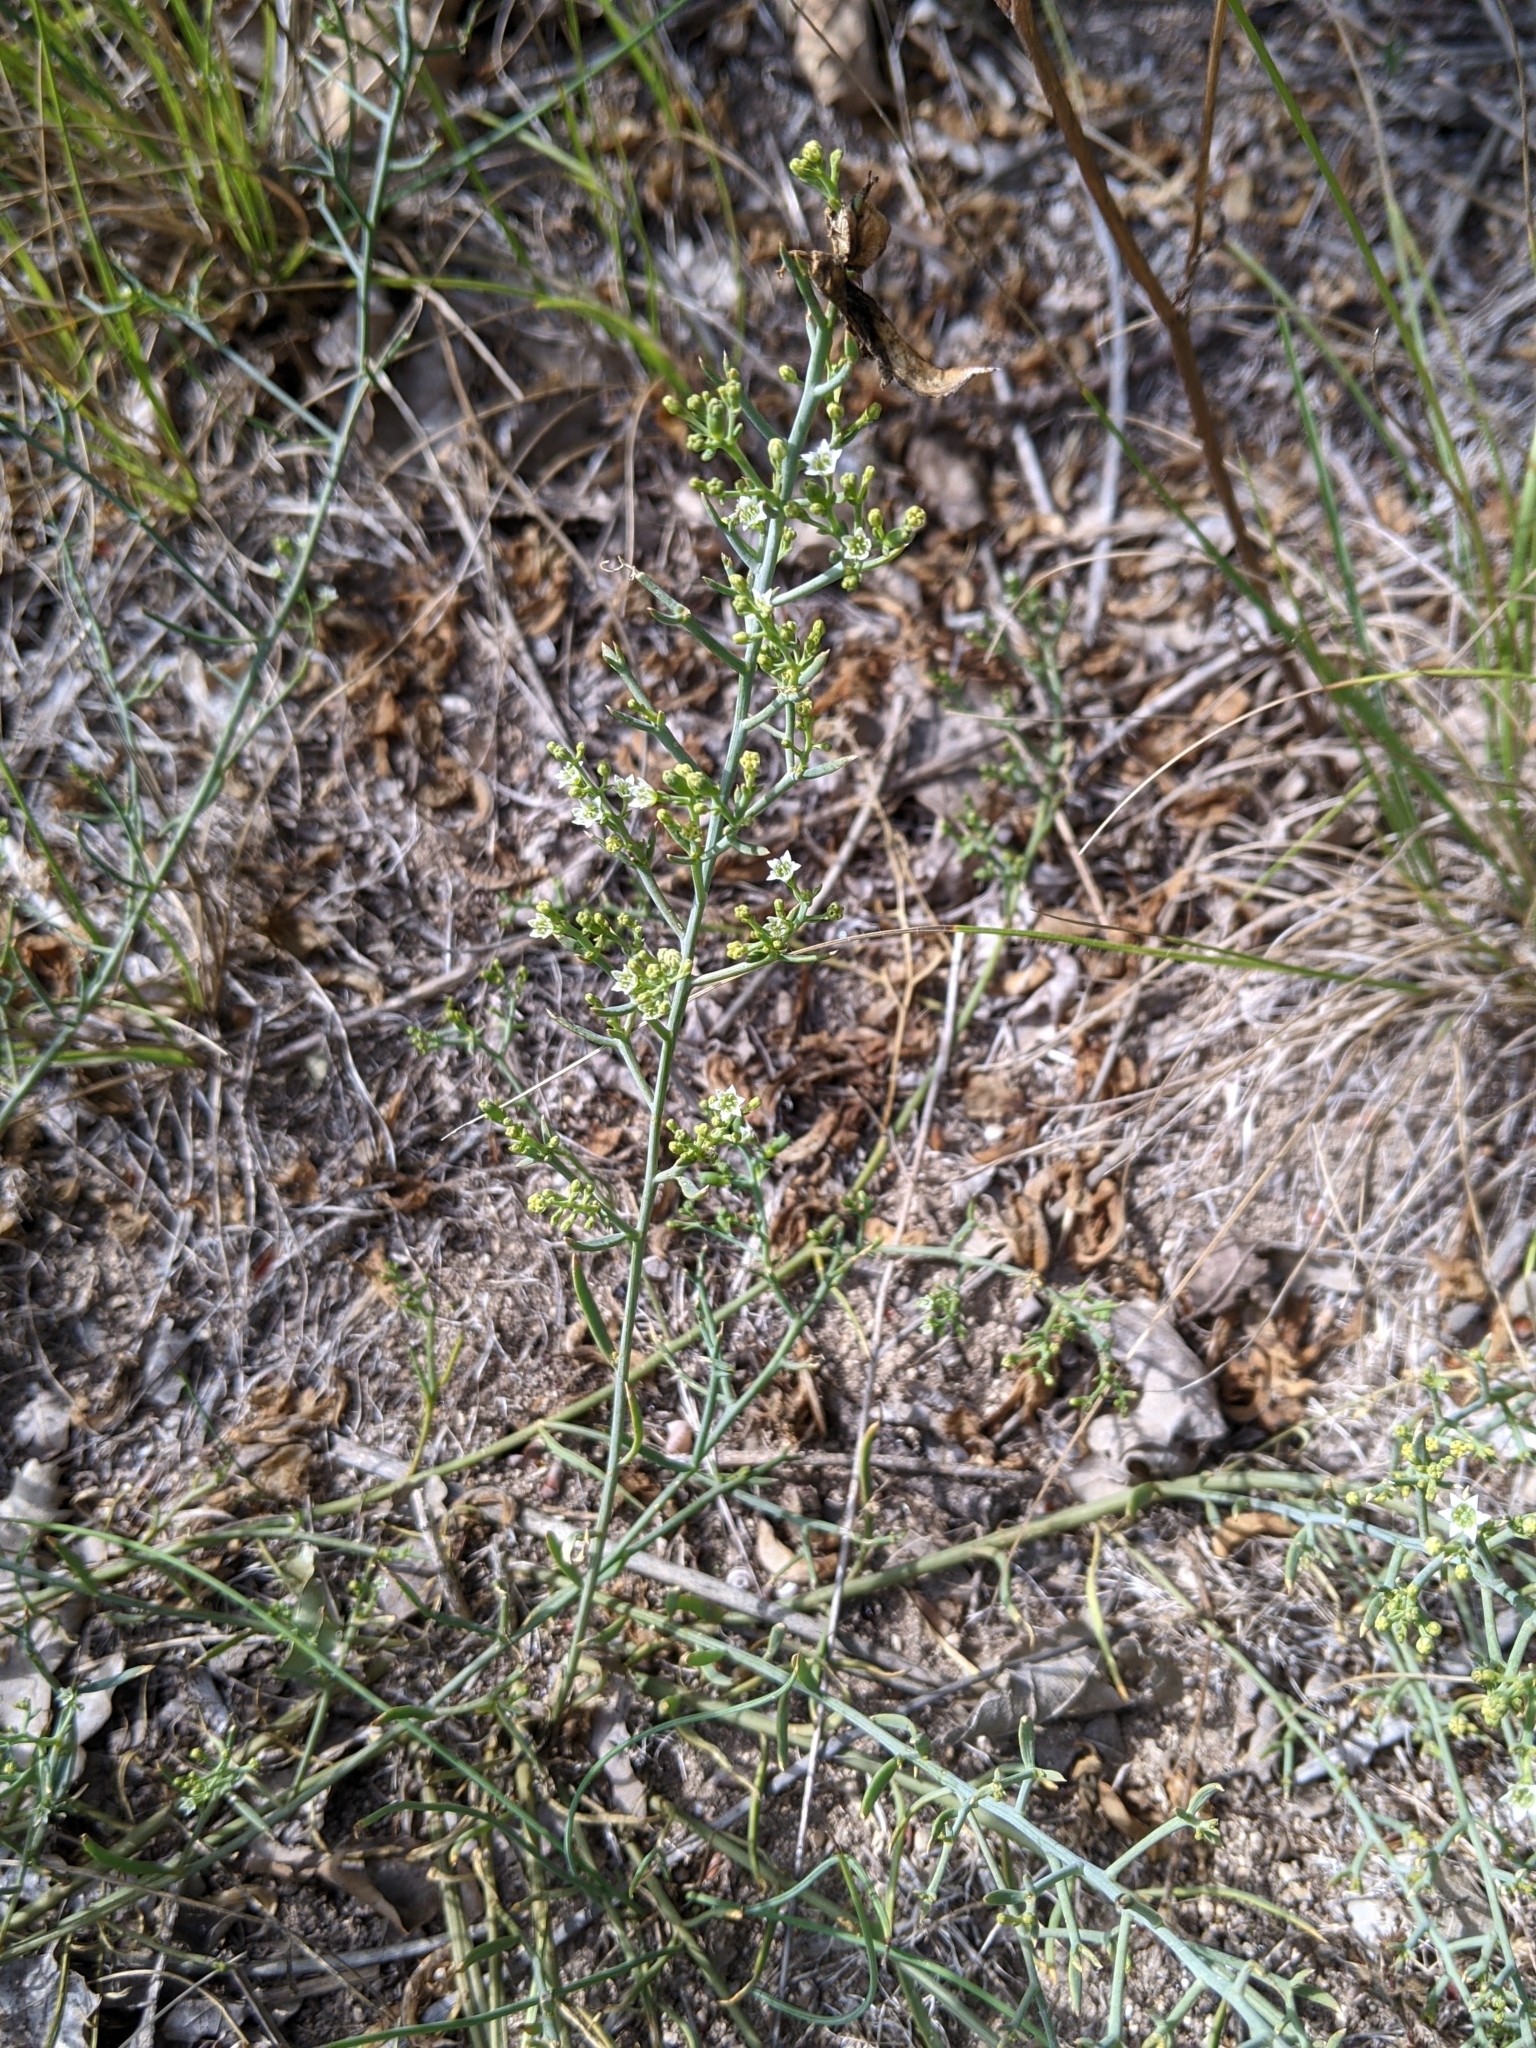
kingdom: Plantae
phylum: Tracheophyta
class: Magnoliopsida
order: Santalales
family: Thesiaceae
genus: Thesium
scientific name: Thesium divaricatum
